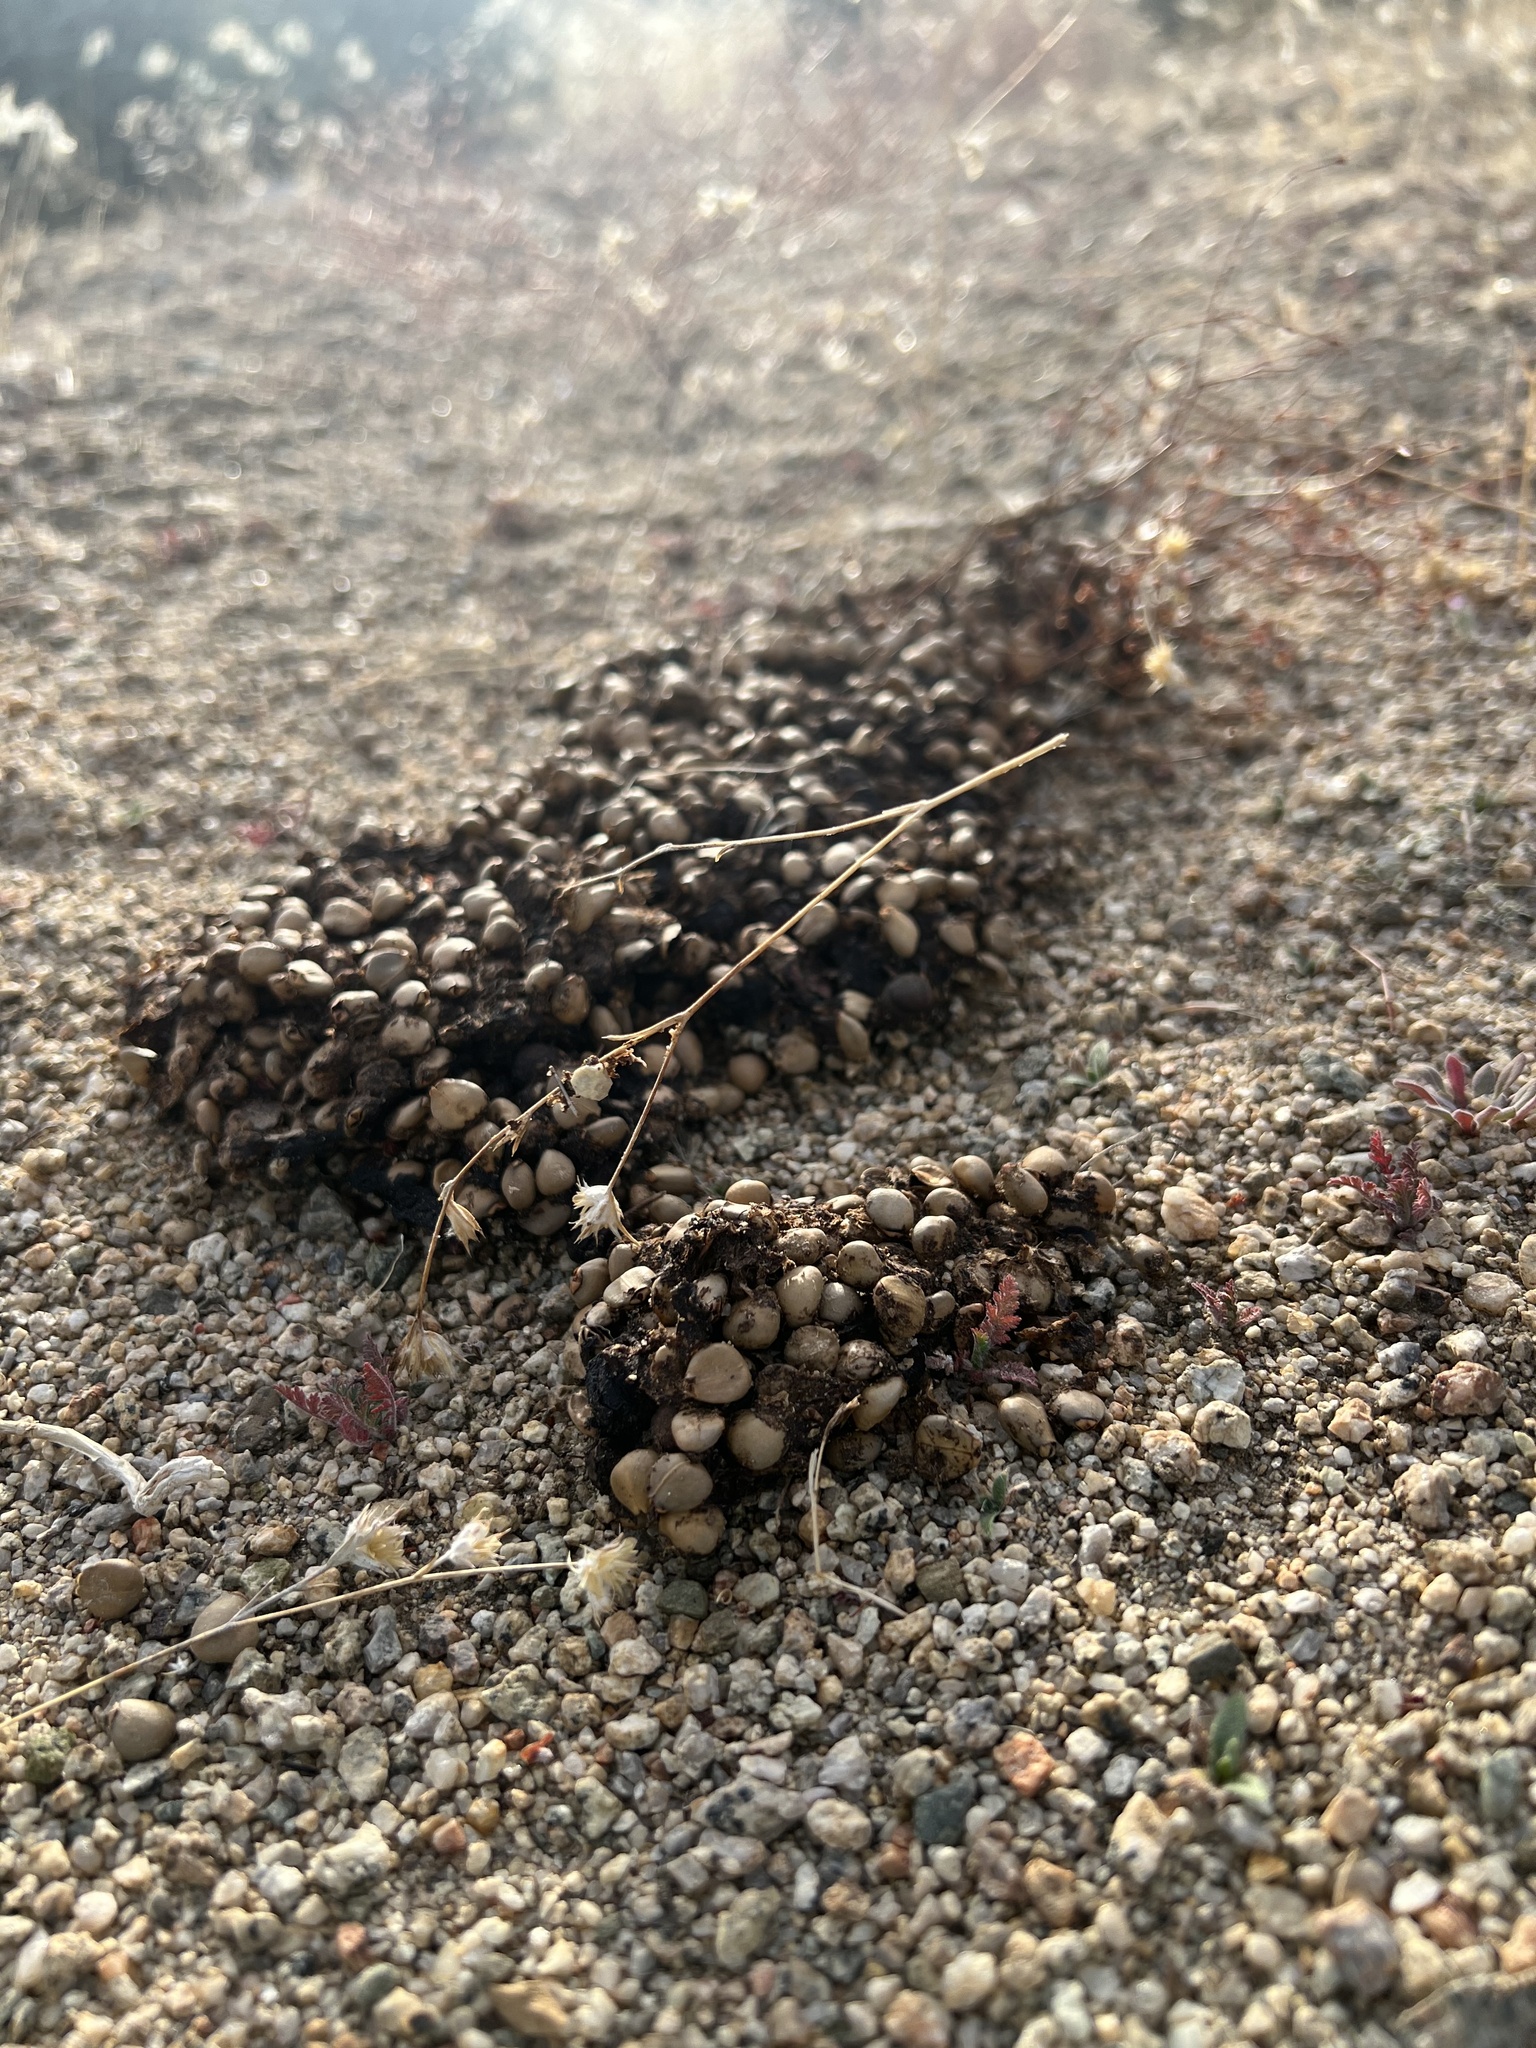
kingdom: Animalia
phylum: Chordata
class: Mammalia
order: Carnivora
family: Ursidae
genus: Ursus
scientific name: Ursus americanus
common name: American black bear
